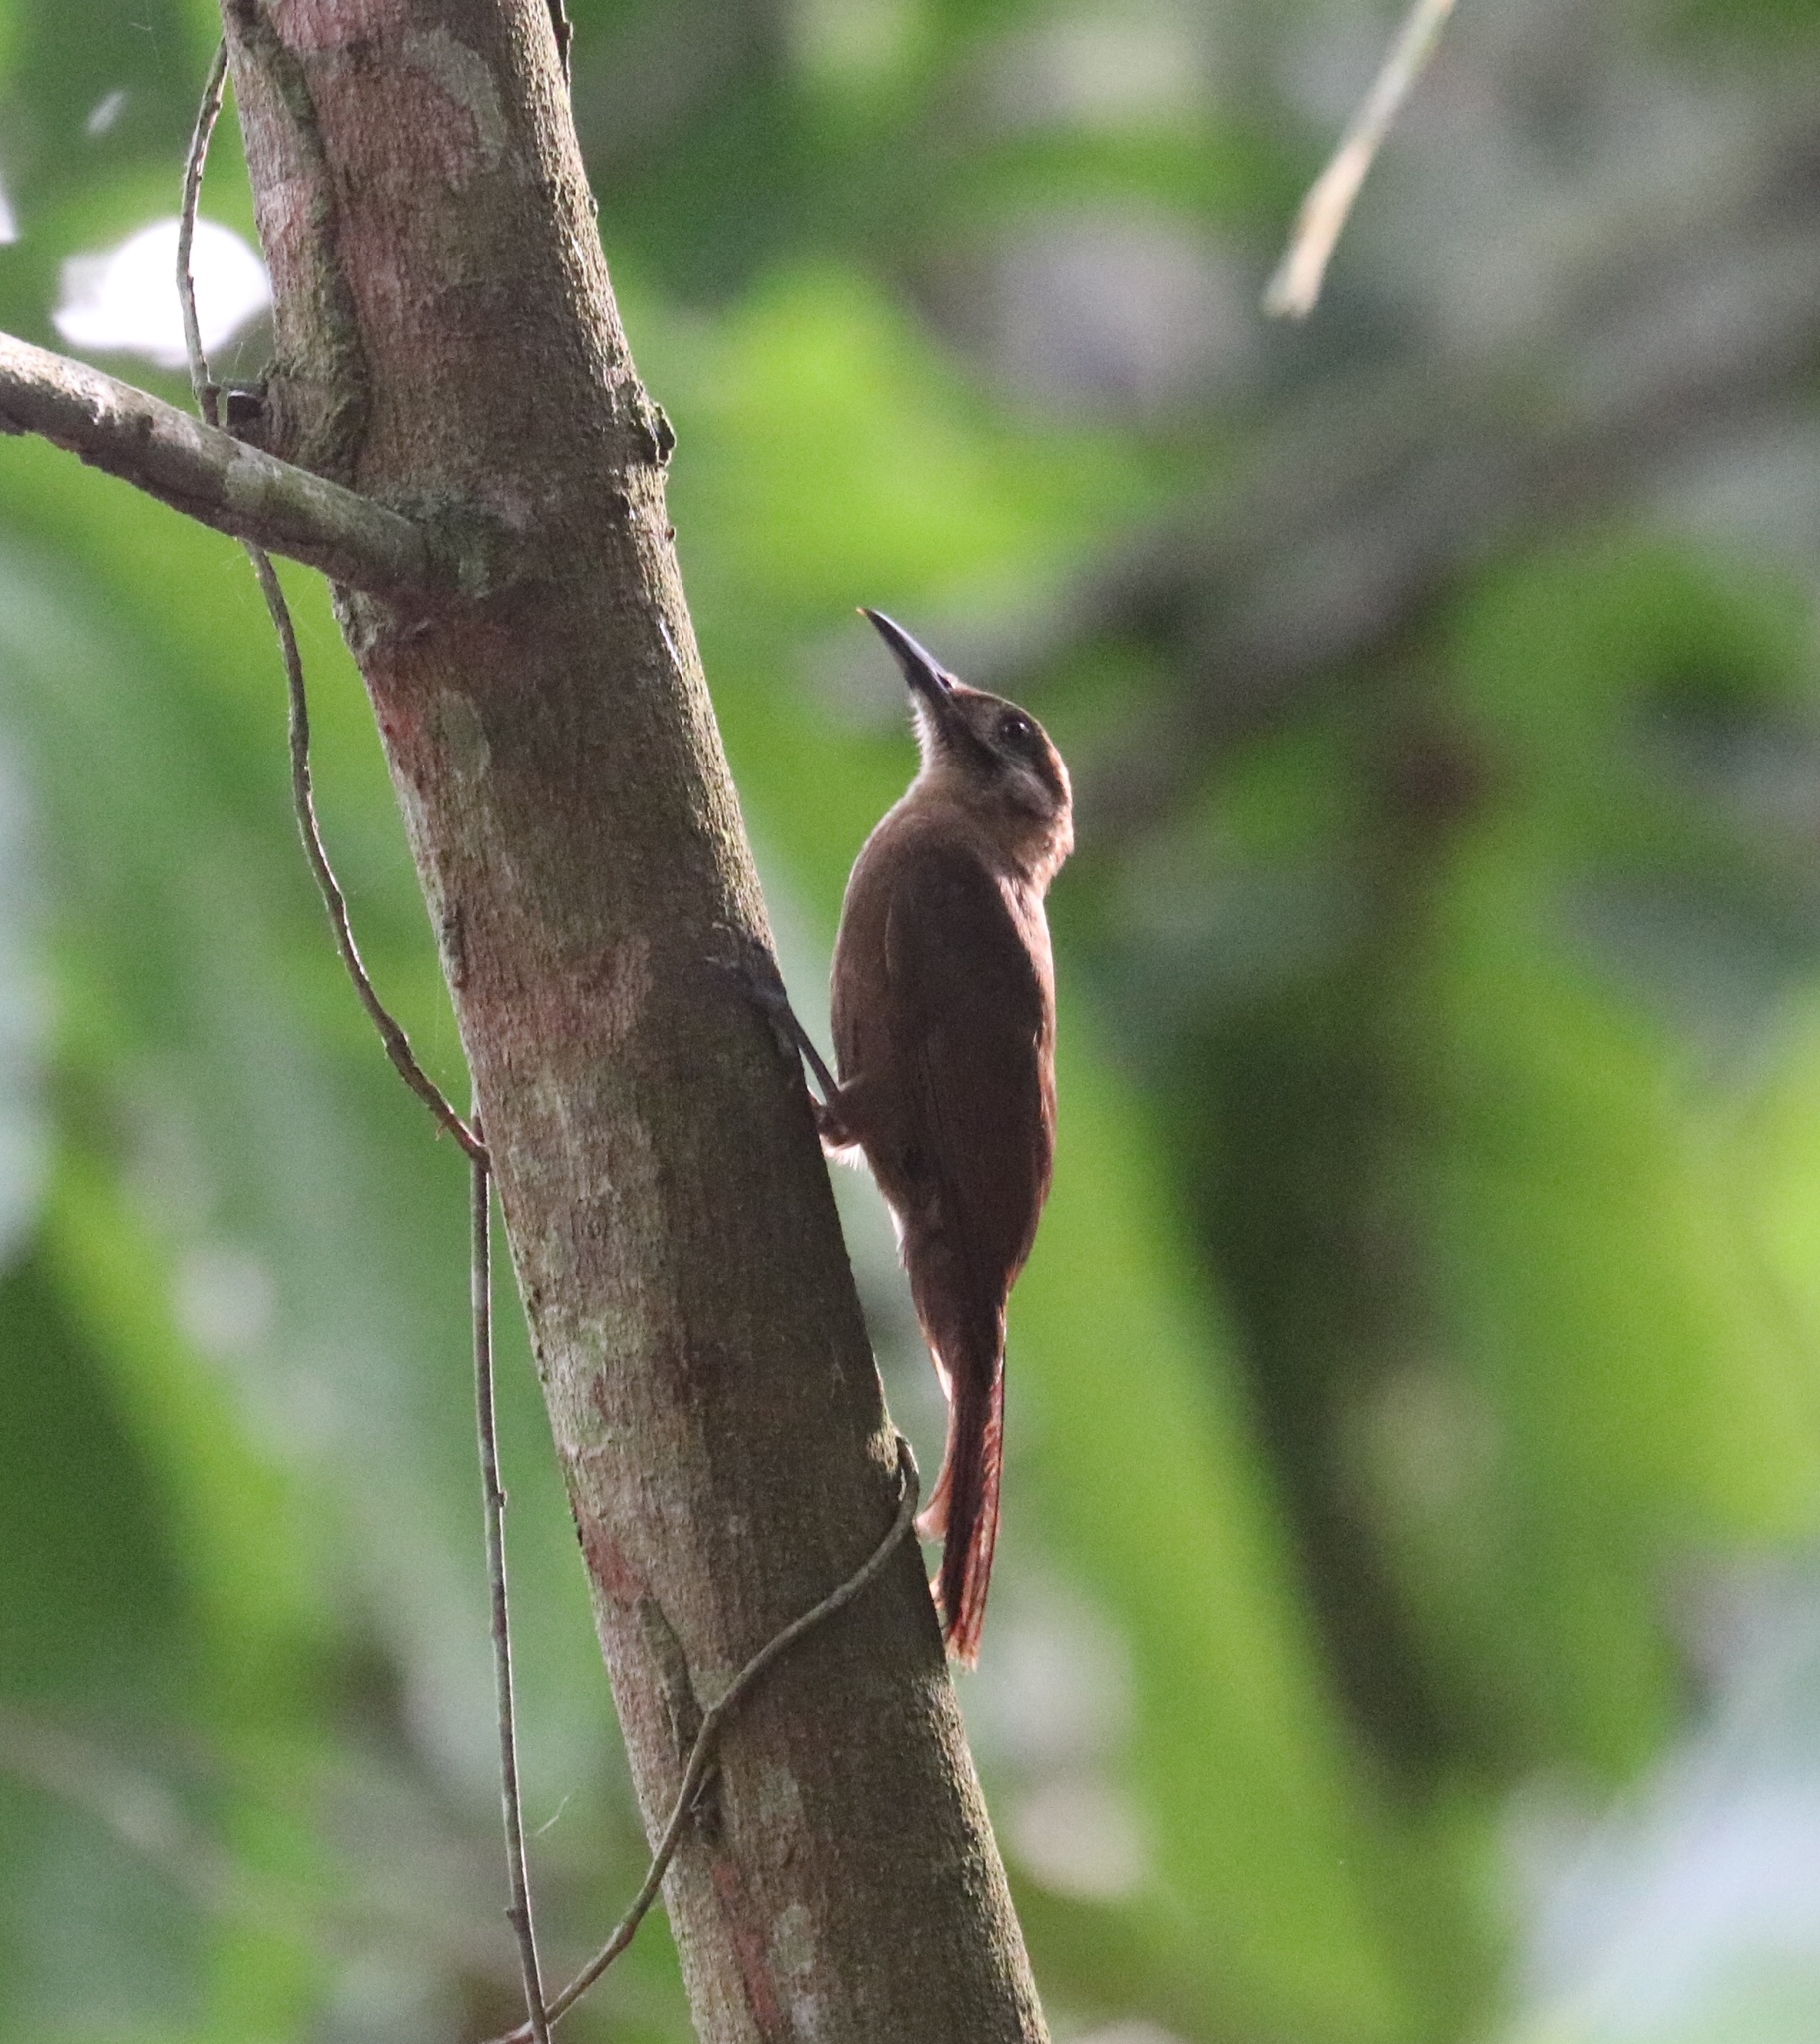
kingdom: Animalia
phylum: Chordata
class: Aves
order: Passeriformes
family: Furnariidae
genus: Dendrocincla
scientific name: Dendrocincla fuliginosa
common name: Plain-brown woodcreeper
